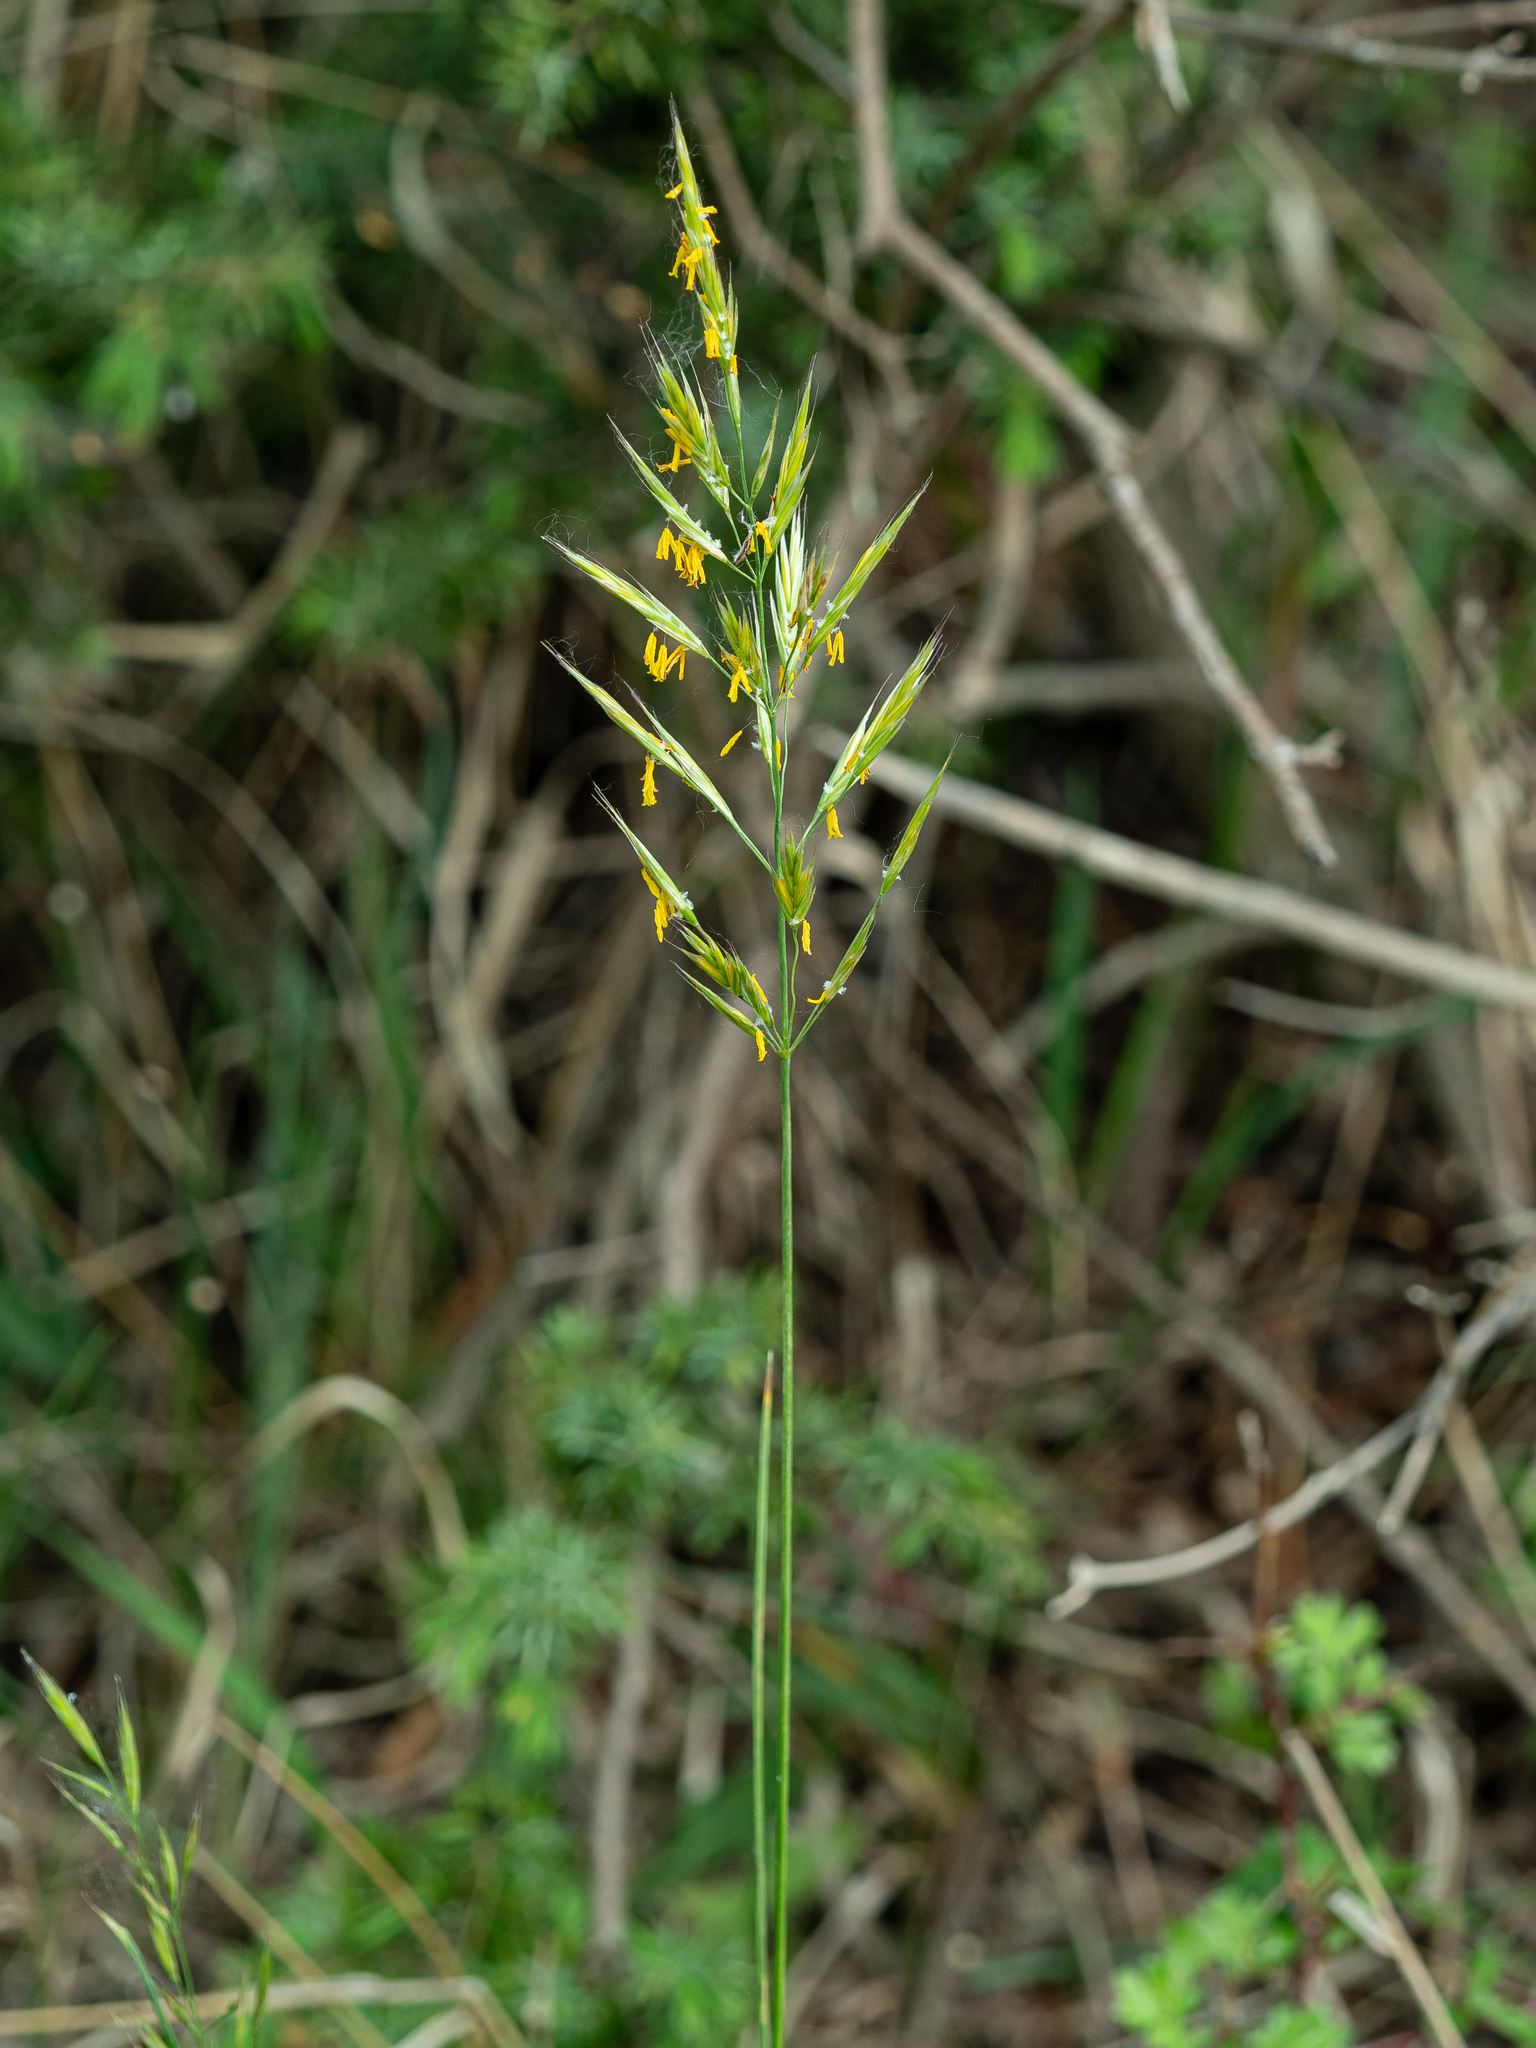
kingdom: Plantae
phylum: Tracheophyta
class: Liliopsida
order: Poales
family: Poaceae
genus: Bromus
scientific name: Bromus erectus
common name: Erect brome
